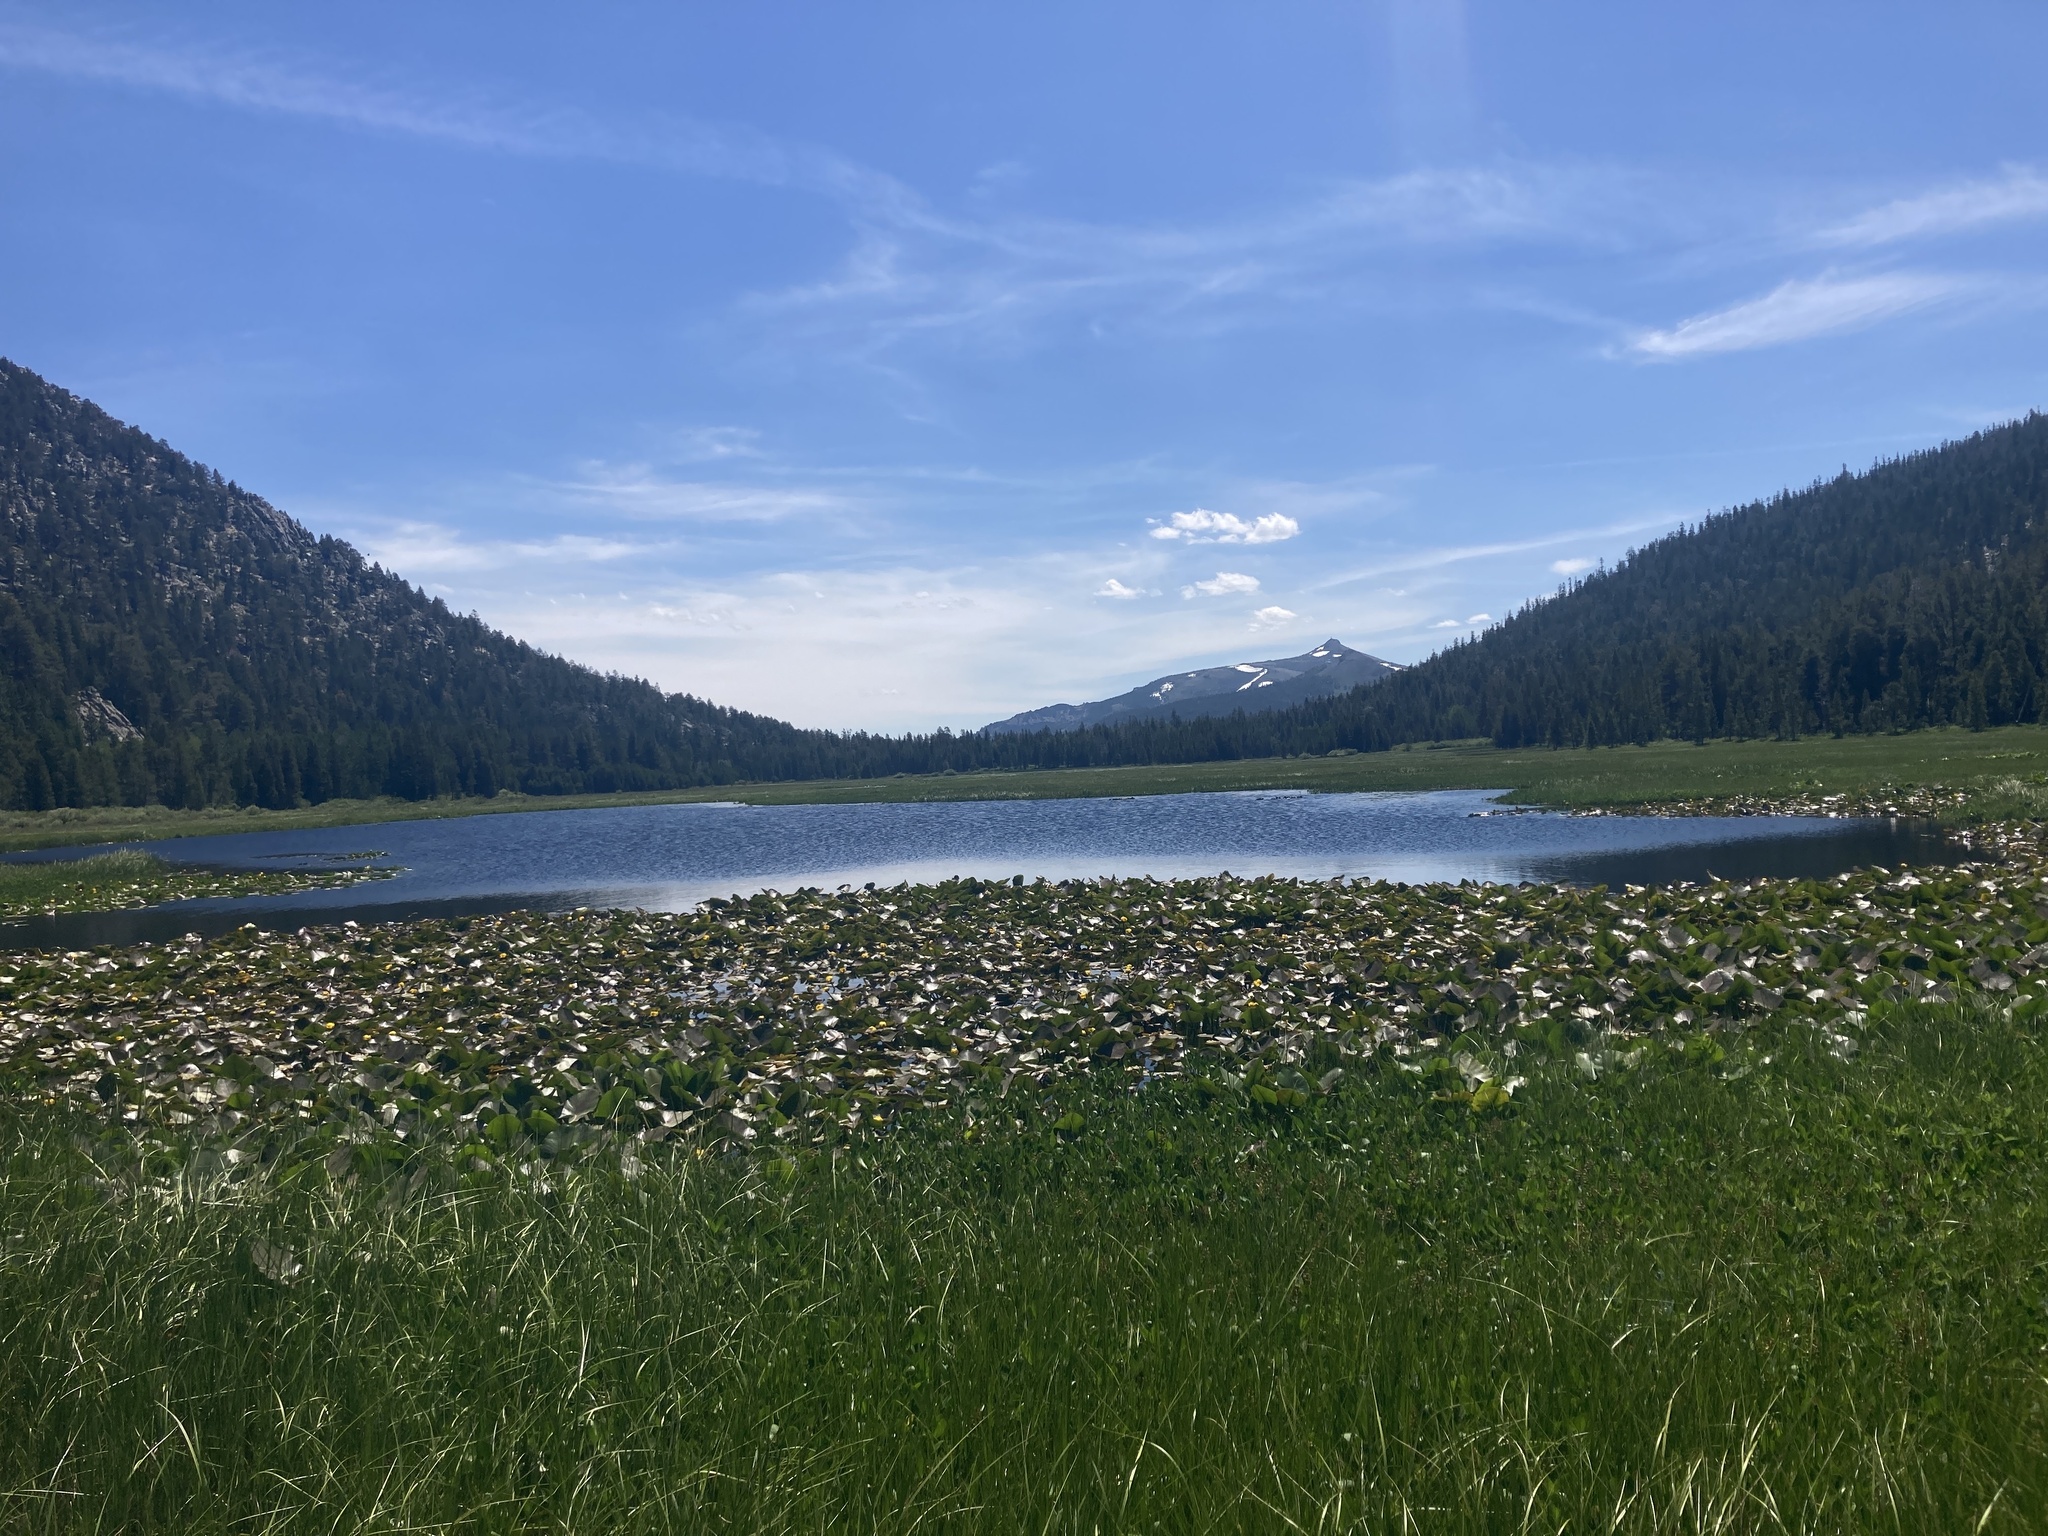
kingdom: Plantae
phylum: Tracheophyta
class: Magnoliopsida
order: Nymphaeales
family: Nymphaeaceae
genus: Nuphar
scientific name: Nuphar polysepala
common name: Rocky mountain cow-lily
